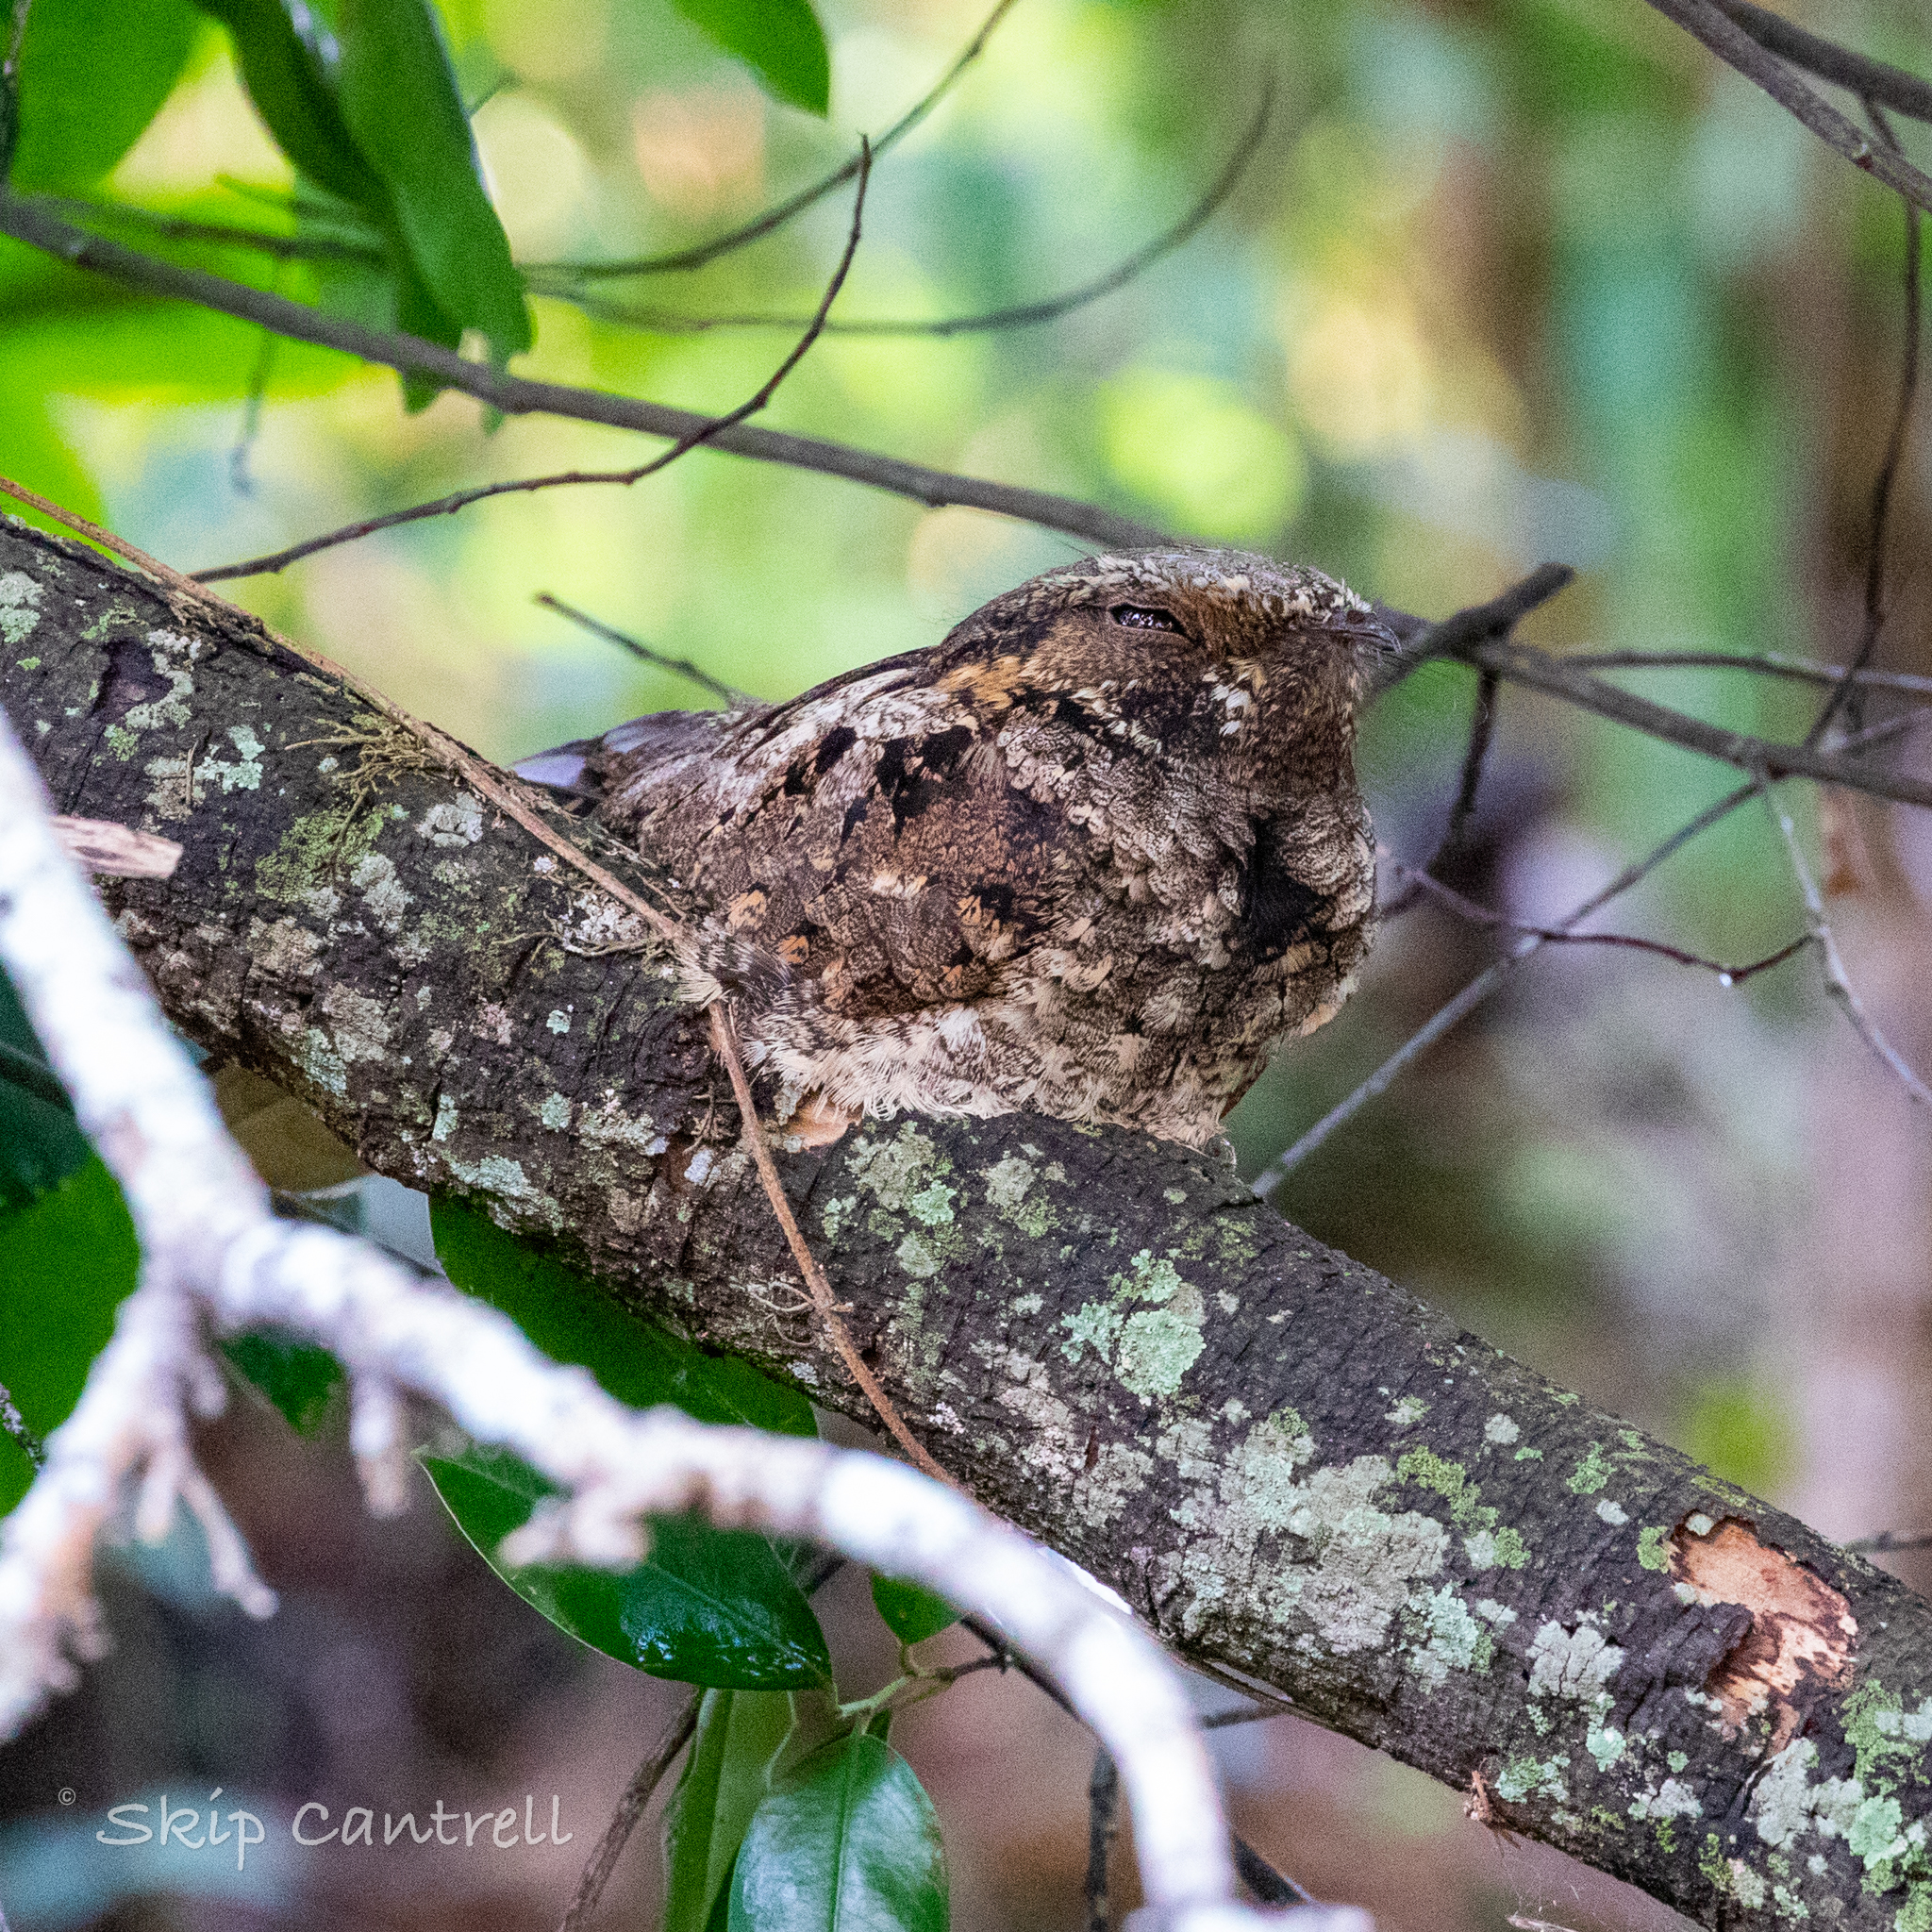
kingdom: Animalia
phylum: Chordata
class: Aves
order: Caprimulgiformes
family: Caprimulgidae
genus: Antrostomus
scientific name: Antrostomus vociferus
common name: Eastern whip-poor-will
